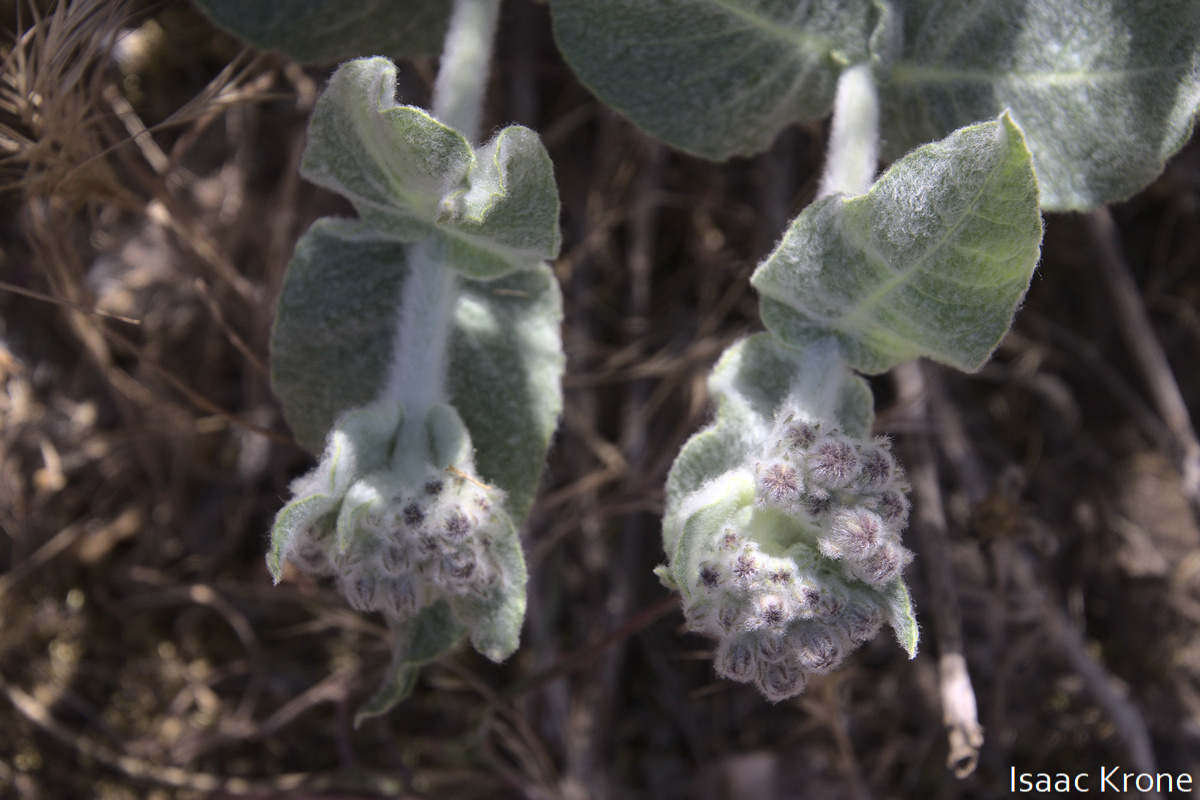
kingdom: Plantae
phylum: Tracheophyta
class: Magnoliopsida
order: Gentianales
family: Apocynaceae
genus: Asclepias
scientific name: Asclepias californica
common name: California milkweed
